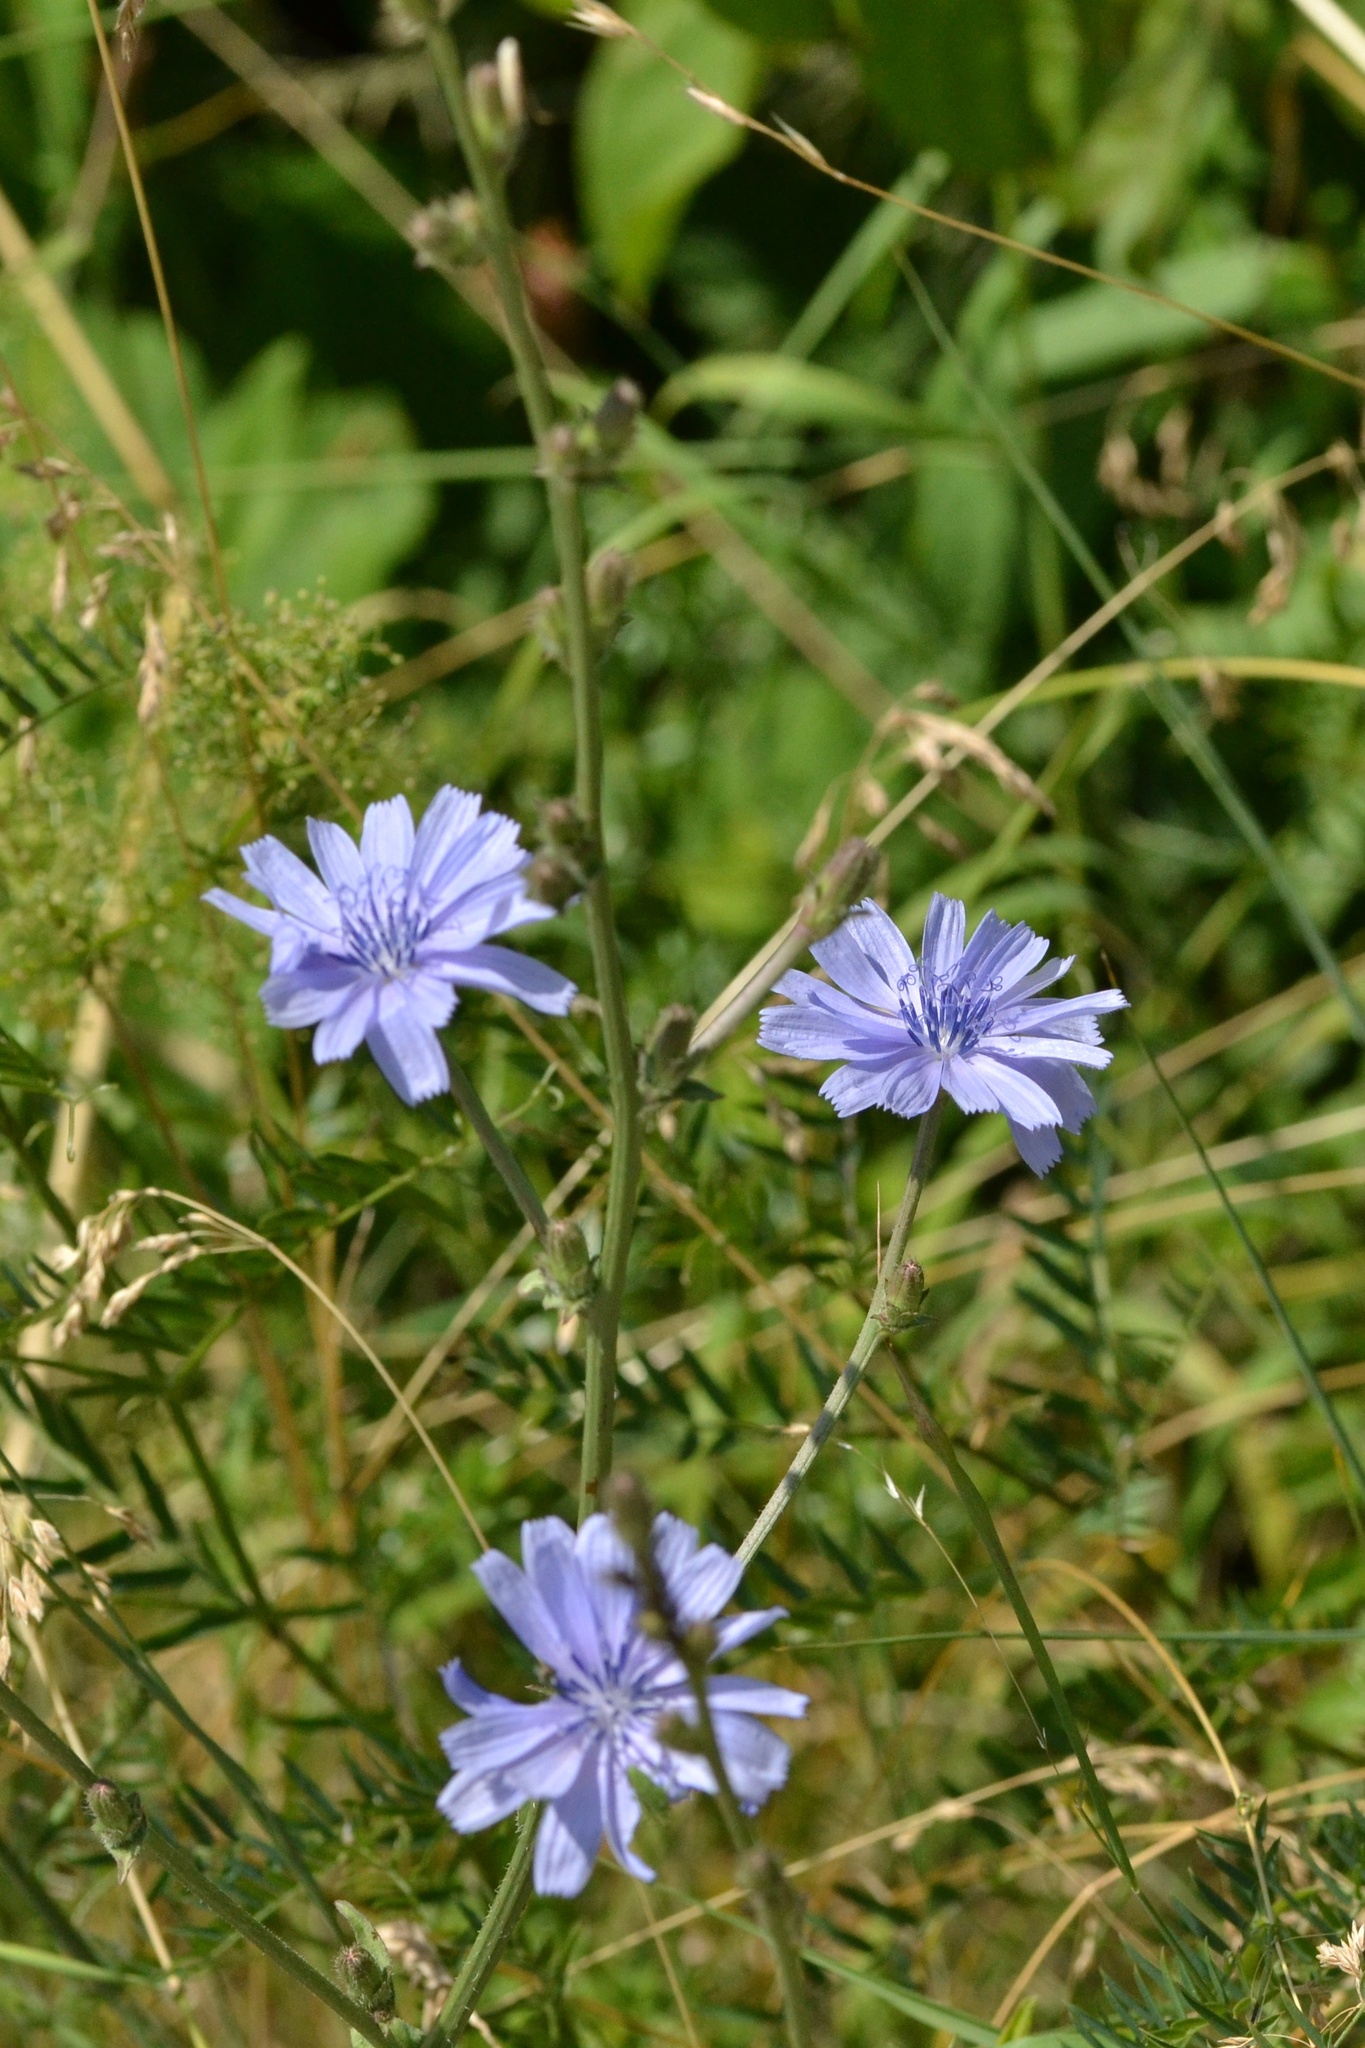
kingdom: Plantae
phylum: Tracheophyta
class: Magnoliopsida
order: Asterales
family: Asteraceae
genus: Cichorium
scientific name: Cichorium intybus
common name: Chicory
